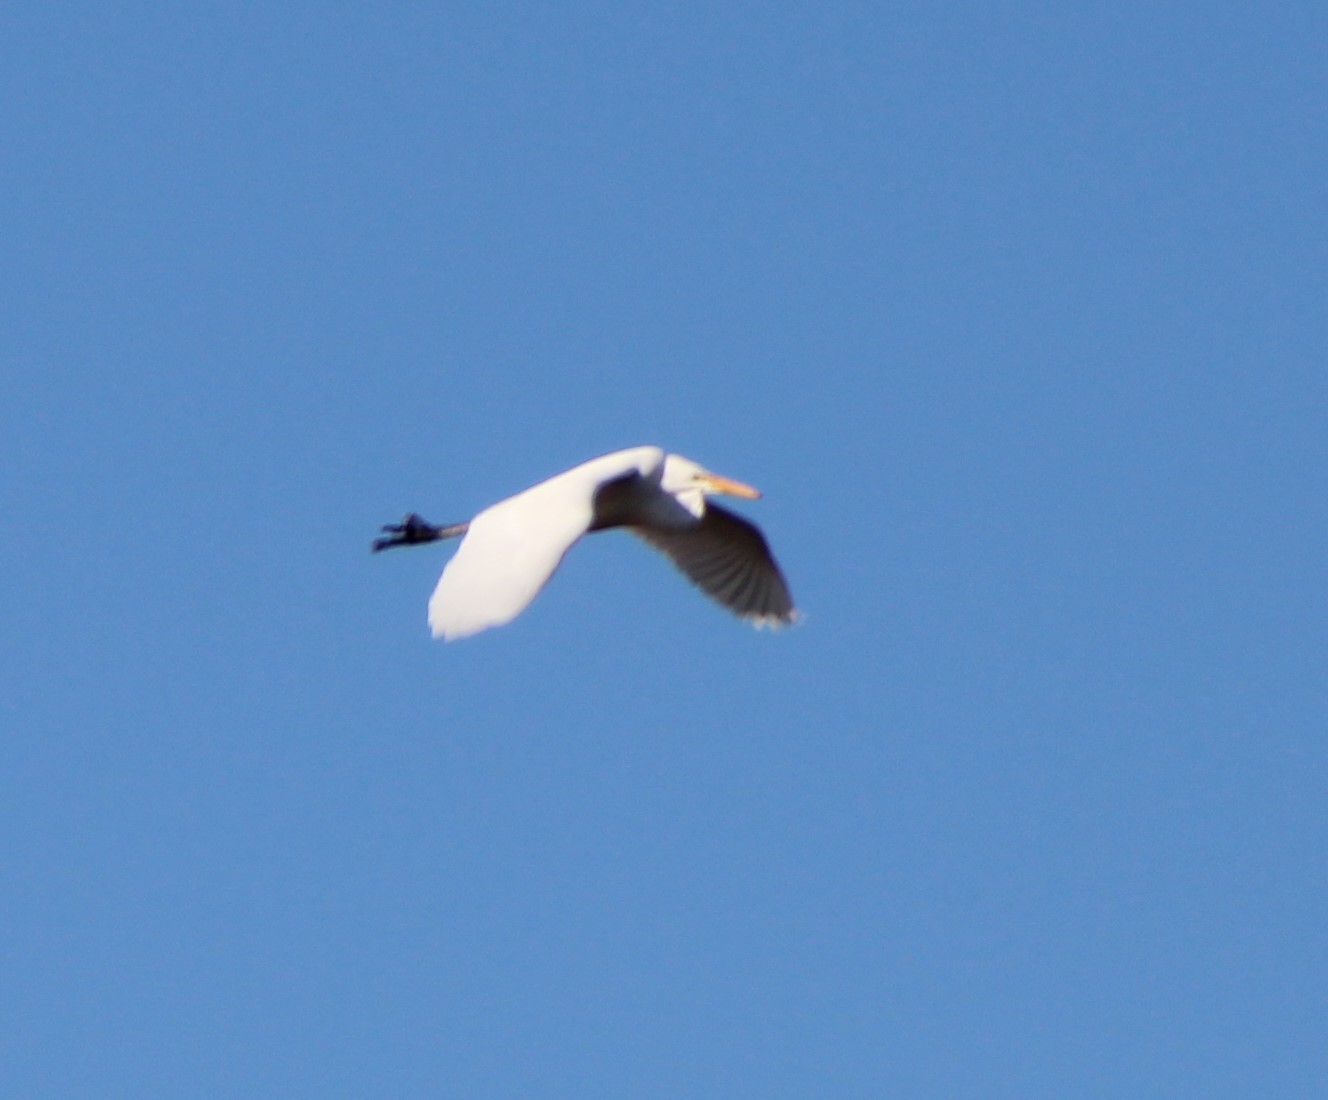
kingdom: Animalia
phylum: Chordata
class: Aves
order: Pelecaniformes
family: Ardeidae
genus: Ardea
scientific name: Ardea alba
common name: Great egret
